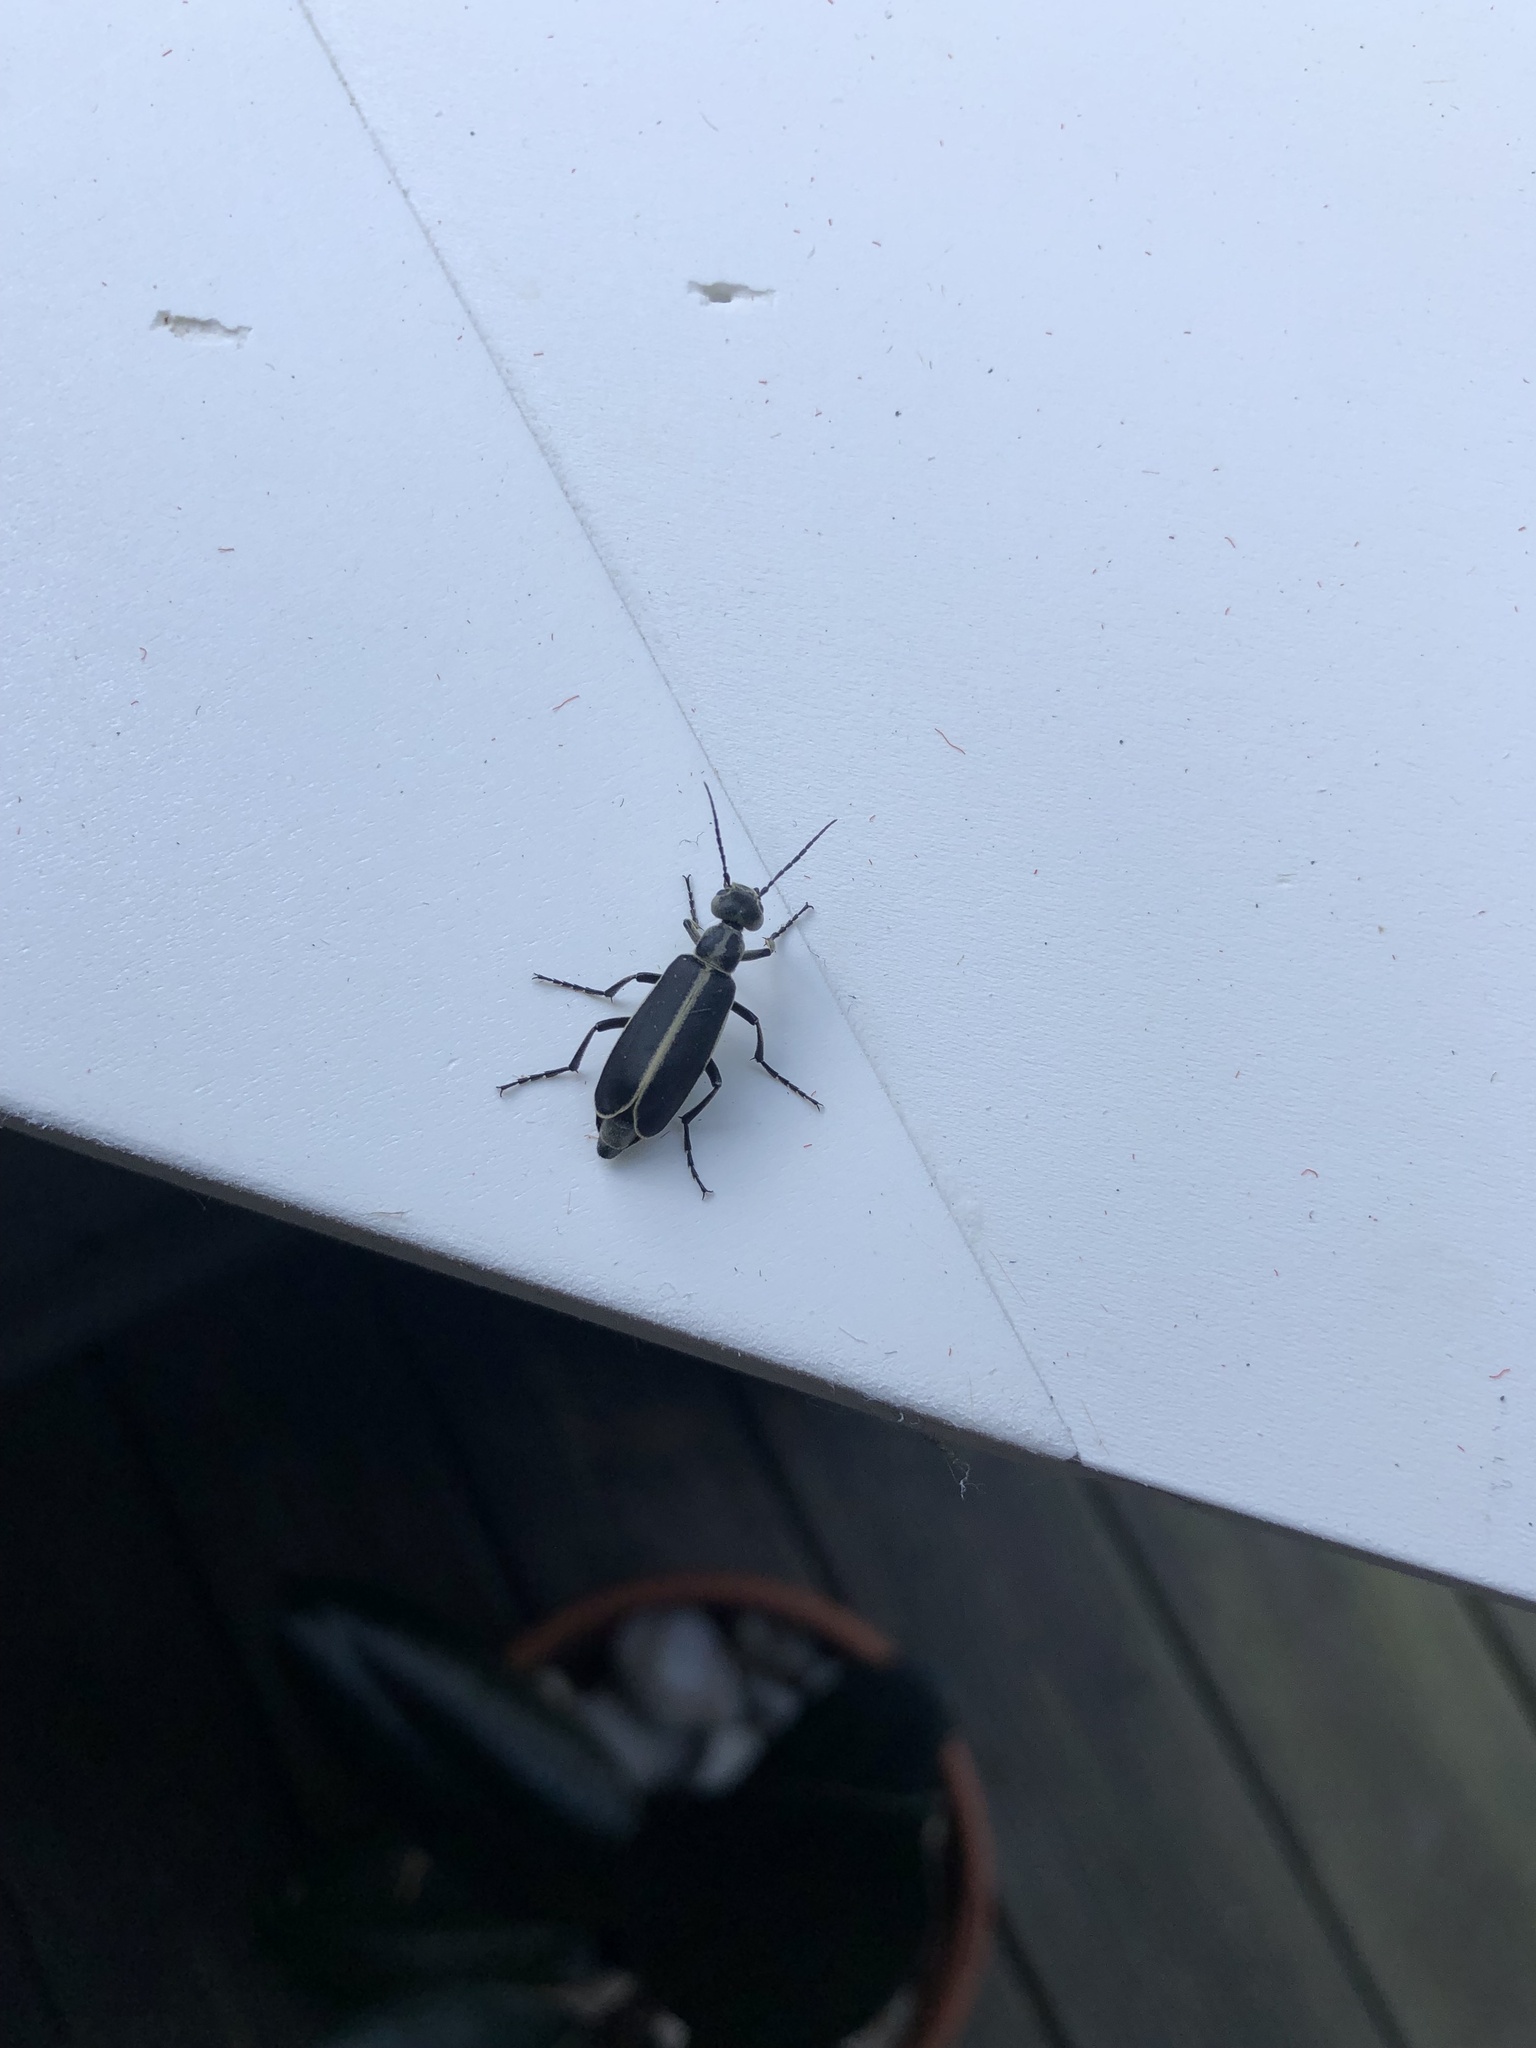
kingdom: Animalia
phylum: Arthropoda
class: Insecta
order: Coleoptera
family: Meloidae
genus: Epicauta
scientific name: Epicauta funebris
